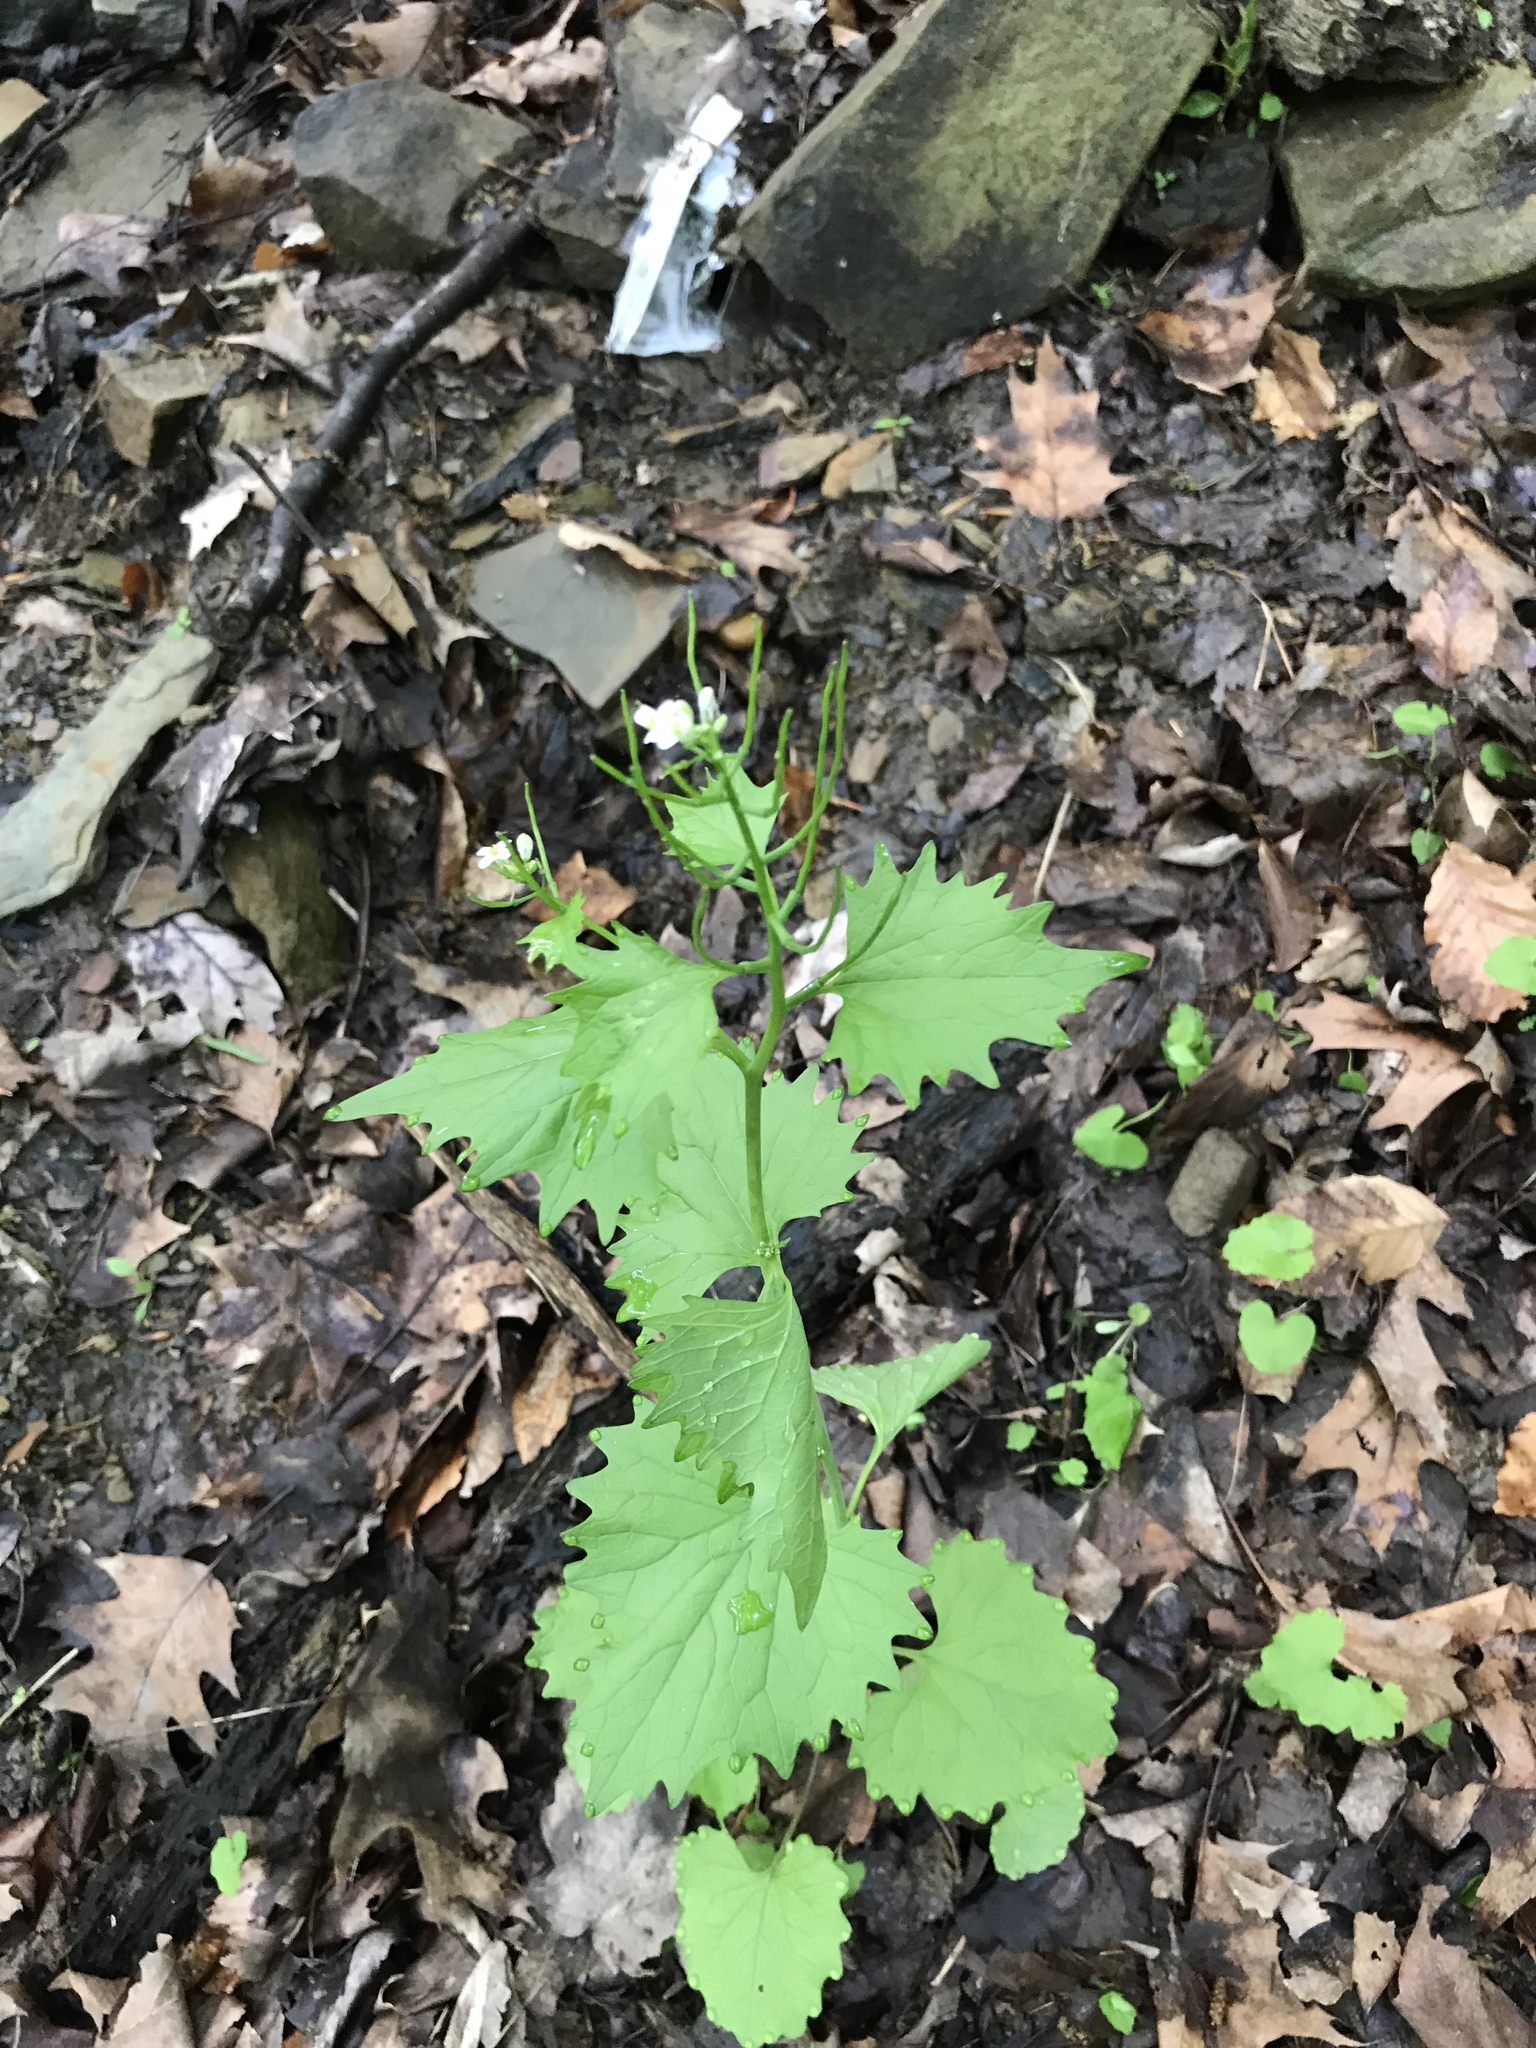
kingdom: Plantae
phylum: Tracheophyta
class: Magnoliopsida
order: Brassicales
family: Brassicaceae
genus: Alliaria
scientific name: Alliaria petiolata
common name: Garlic mustard
